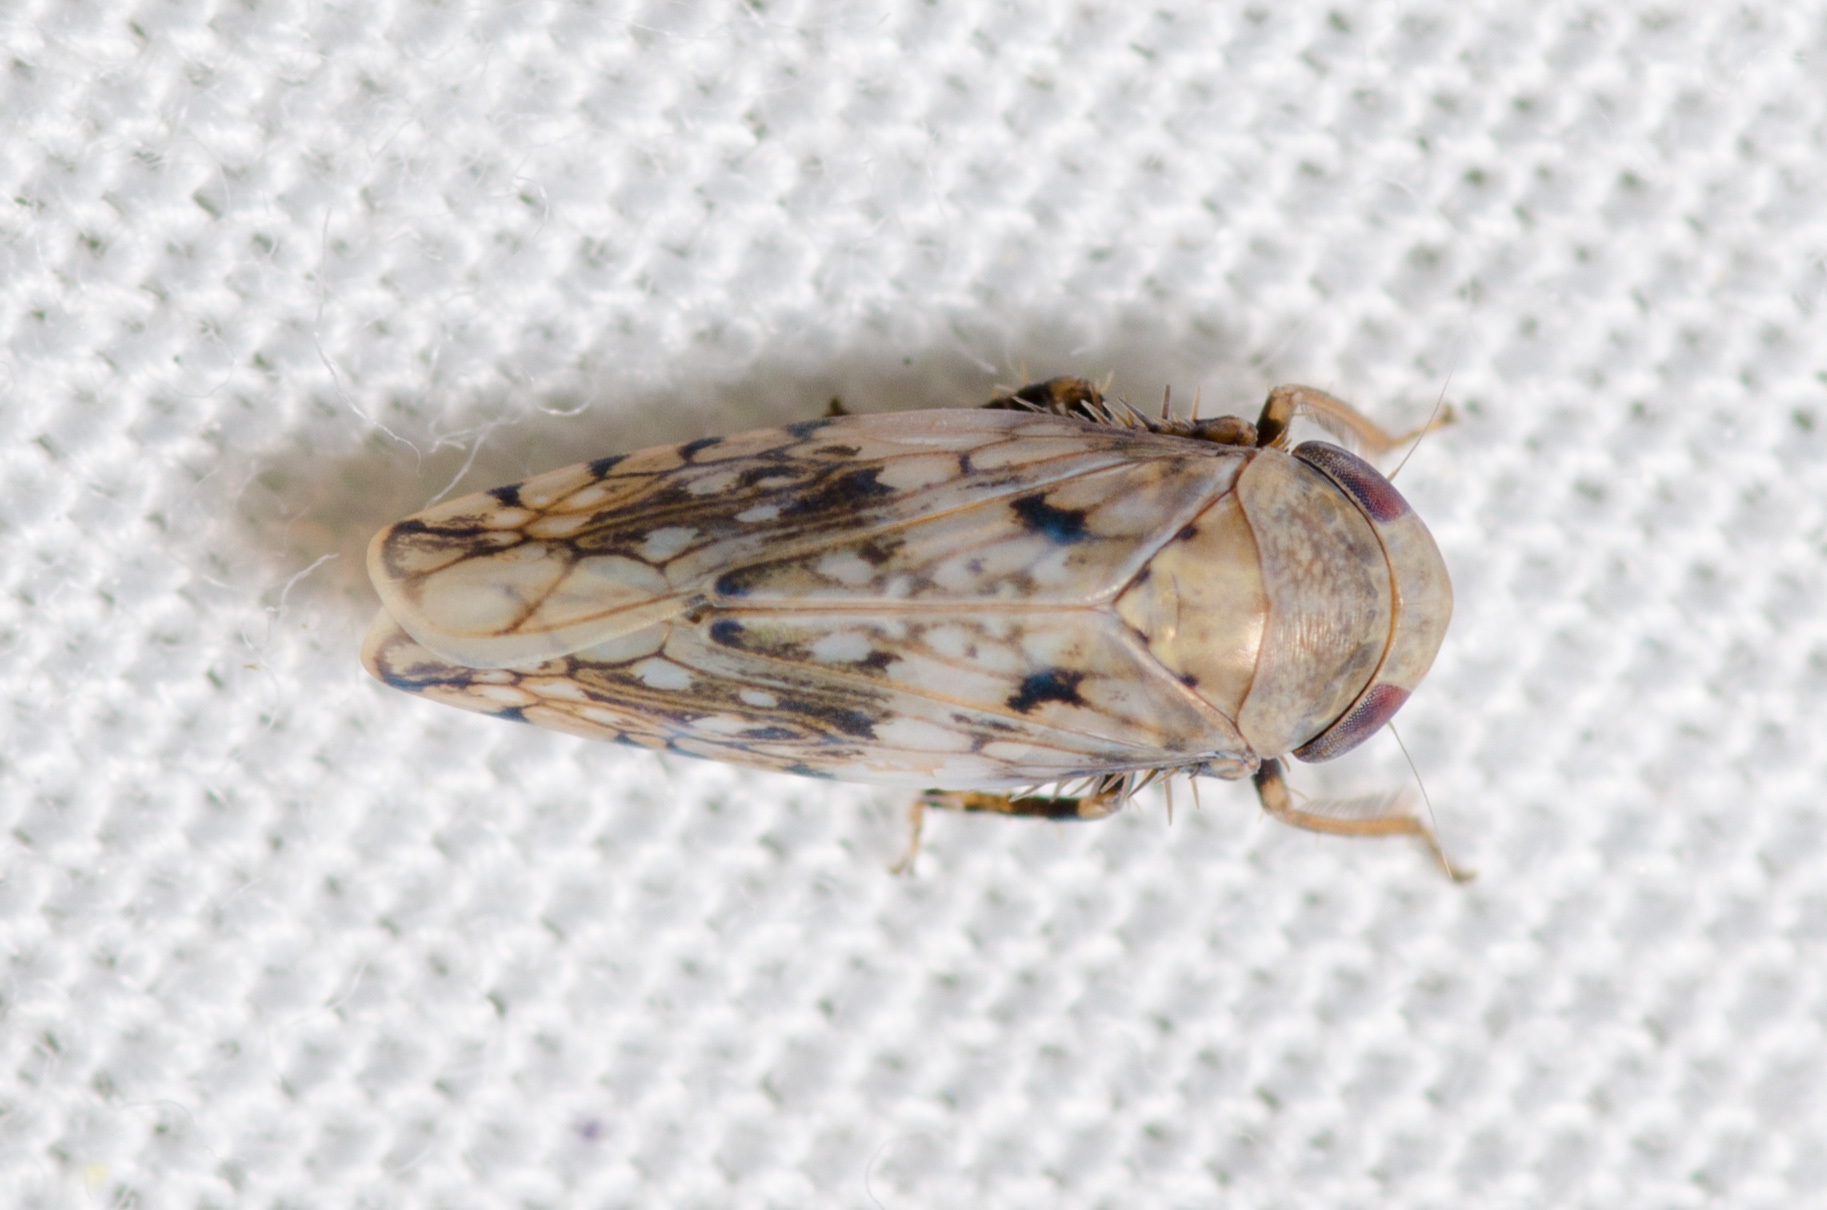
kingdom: Animalia
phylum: Arthropoda
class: Insecta
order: Hemiptera
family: Cicadellidae
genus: Menosoma
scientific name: Menosoma cinctum
